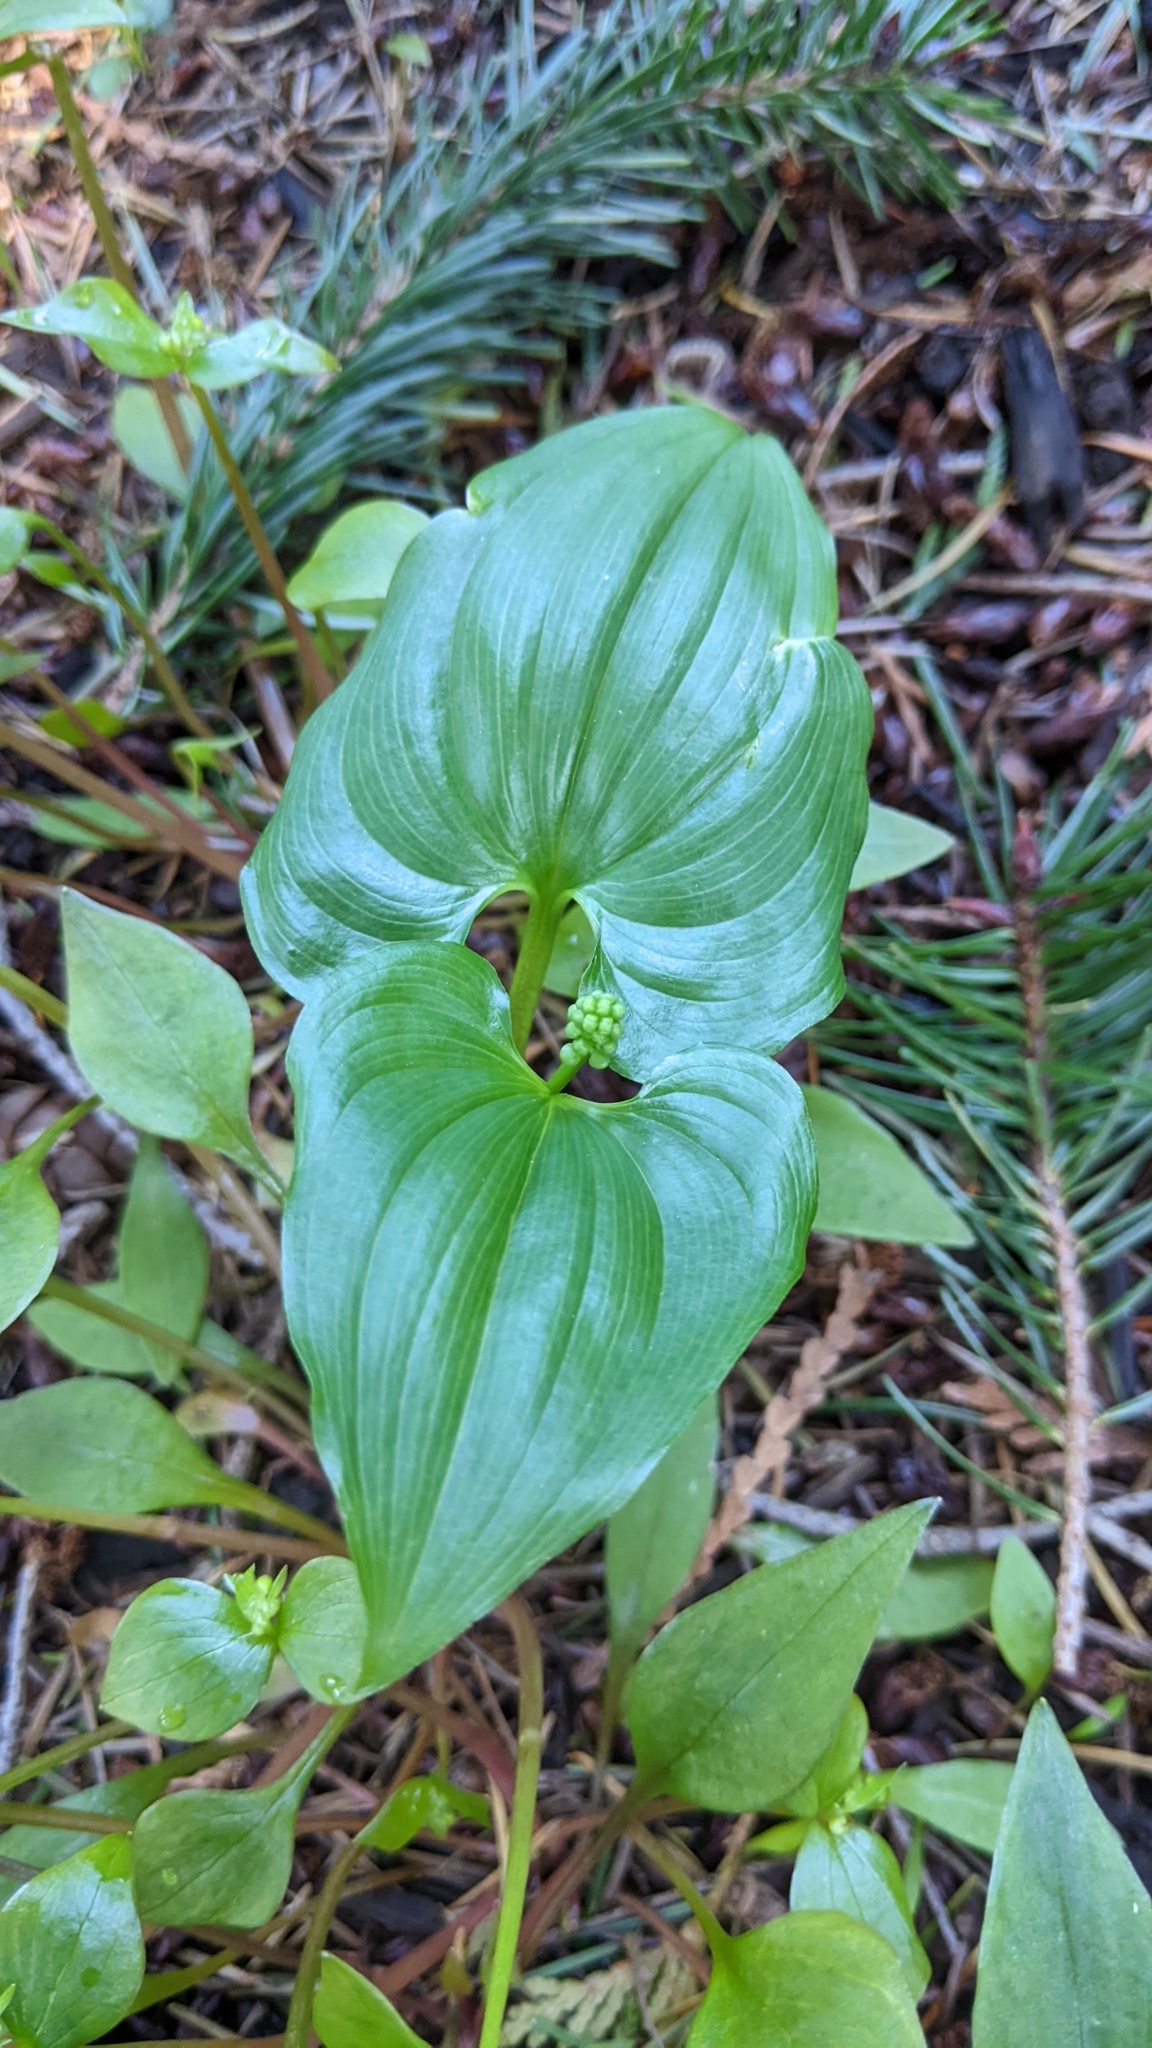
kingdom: Plantae
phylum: Tracheophyta
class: Liliopsida
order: Asparagales
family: Asparagaceae
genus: Maianthemum
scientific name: Maianthemum dilatatum
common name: False lily-of-the-valley
